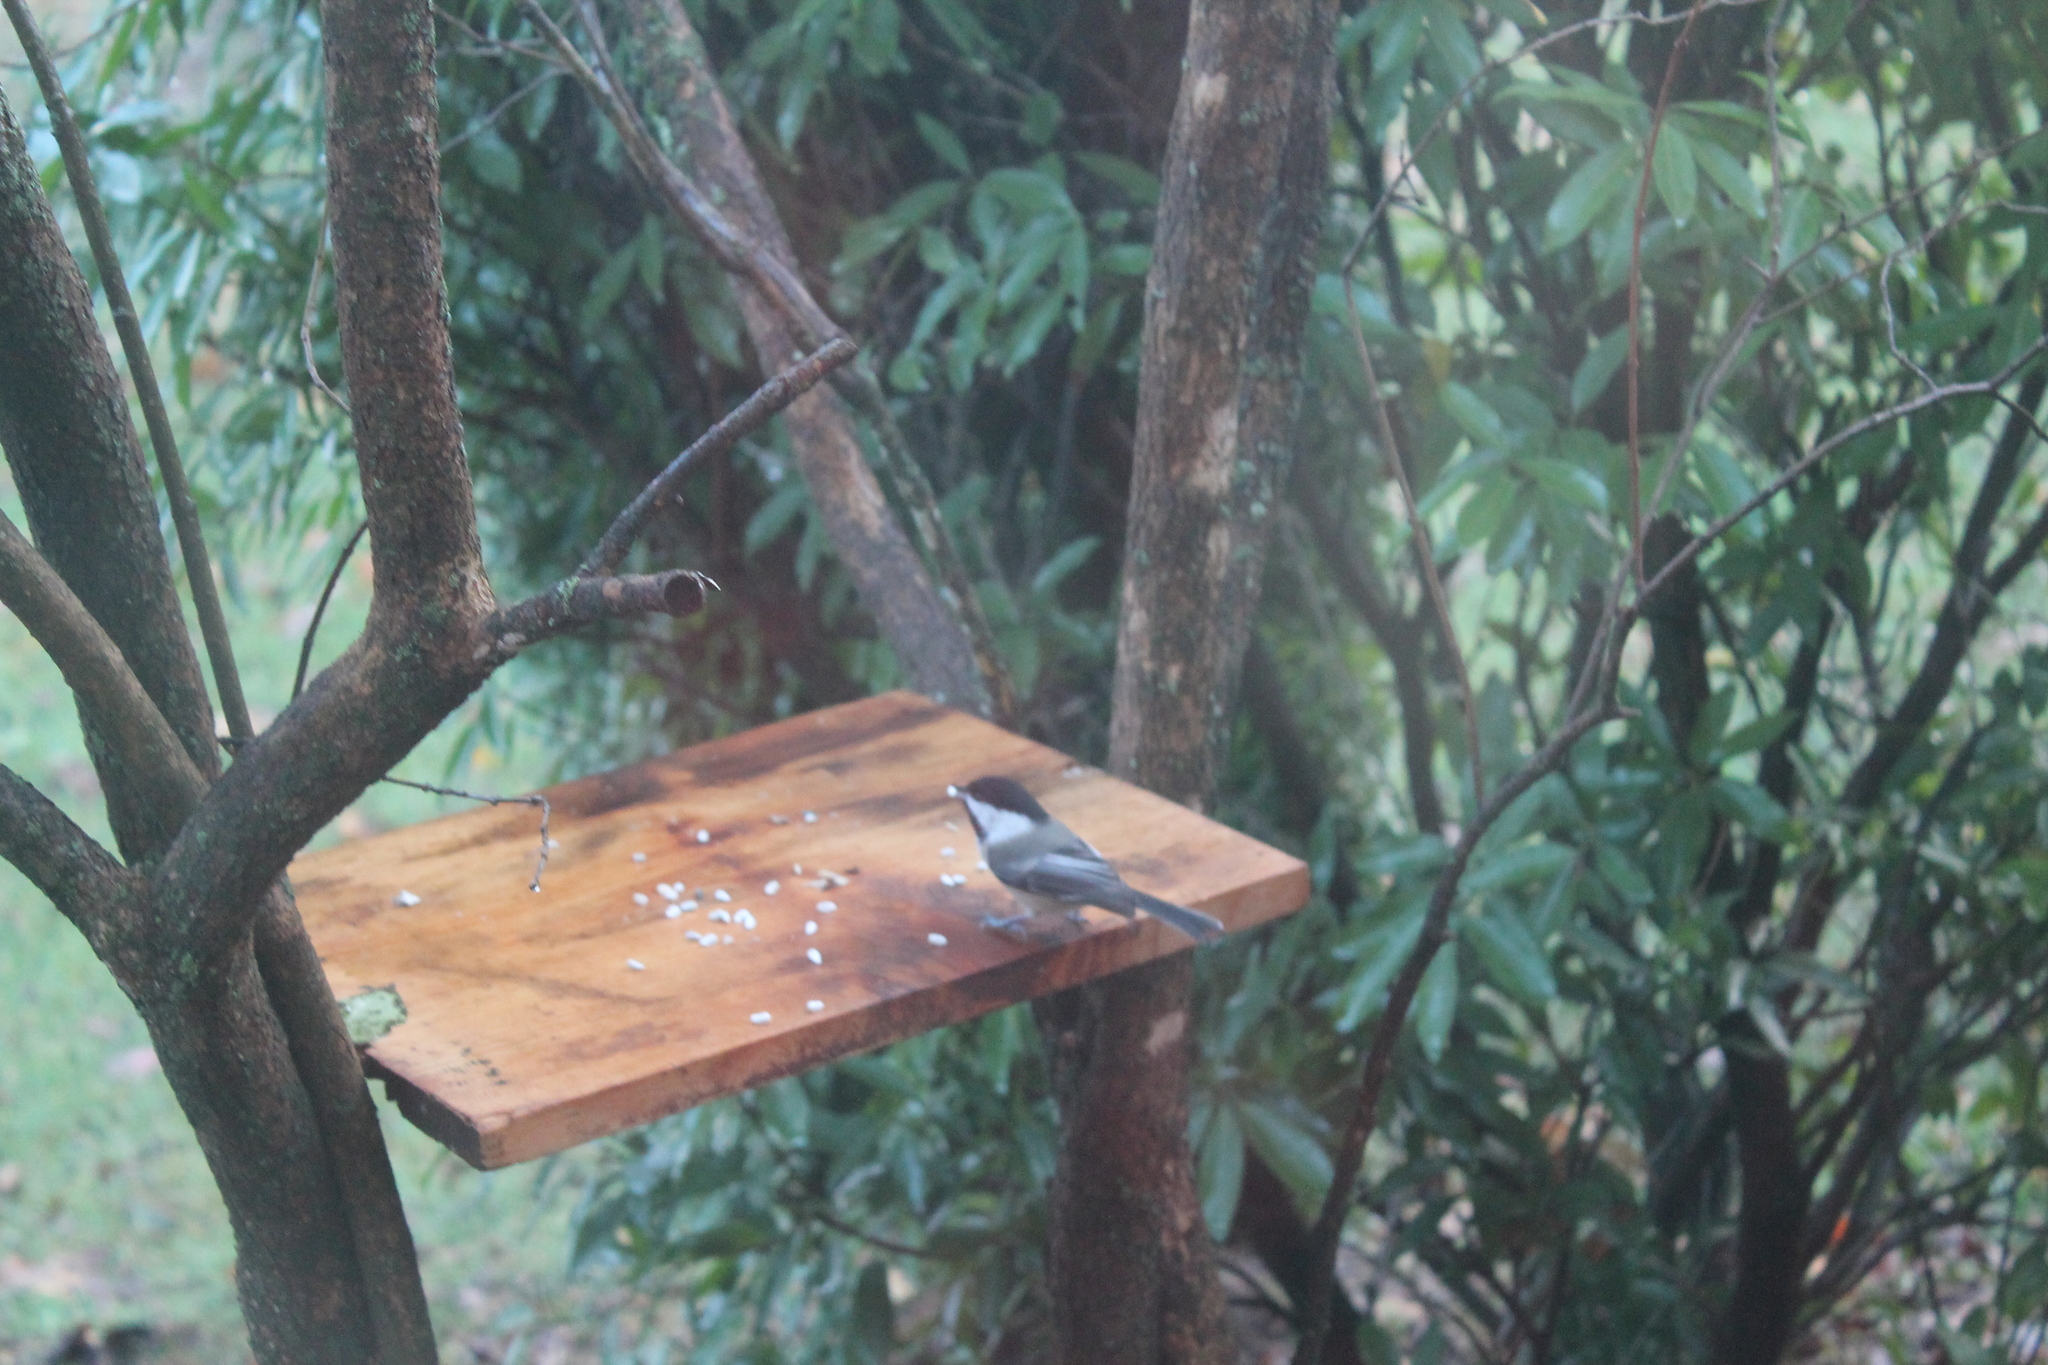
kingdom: Animalia
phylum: Chordata
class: Aves
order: Passeriformes
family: Paridae
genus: Poecile
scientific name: Poecile atricapillus
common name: Black-capped chickadee
